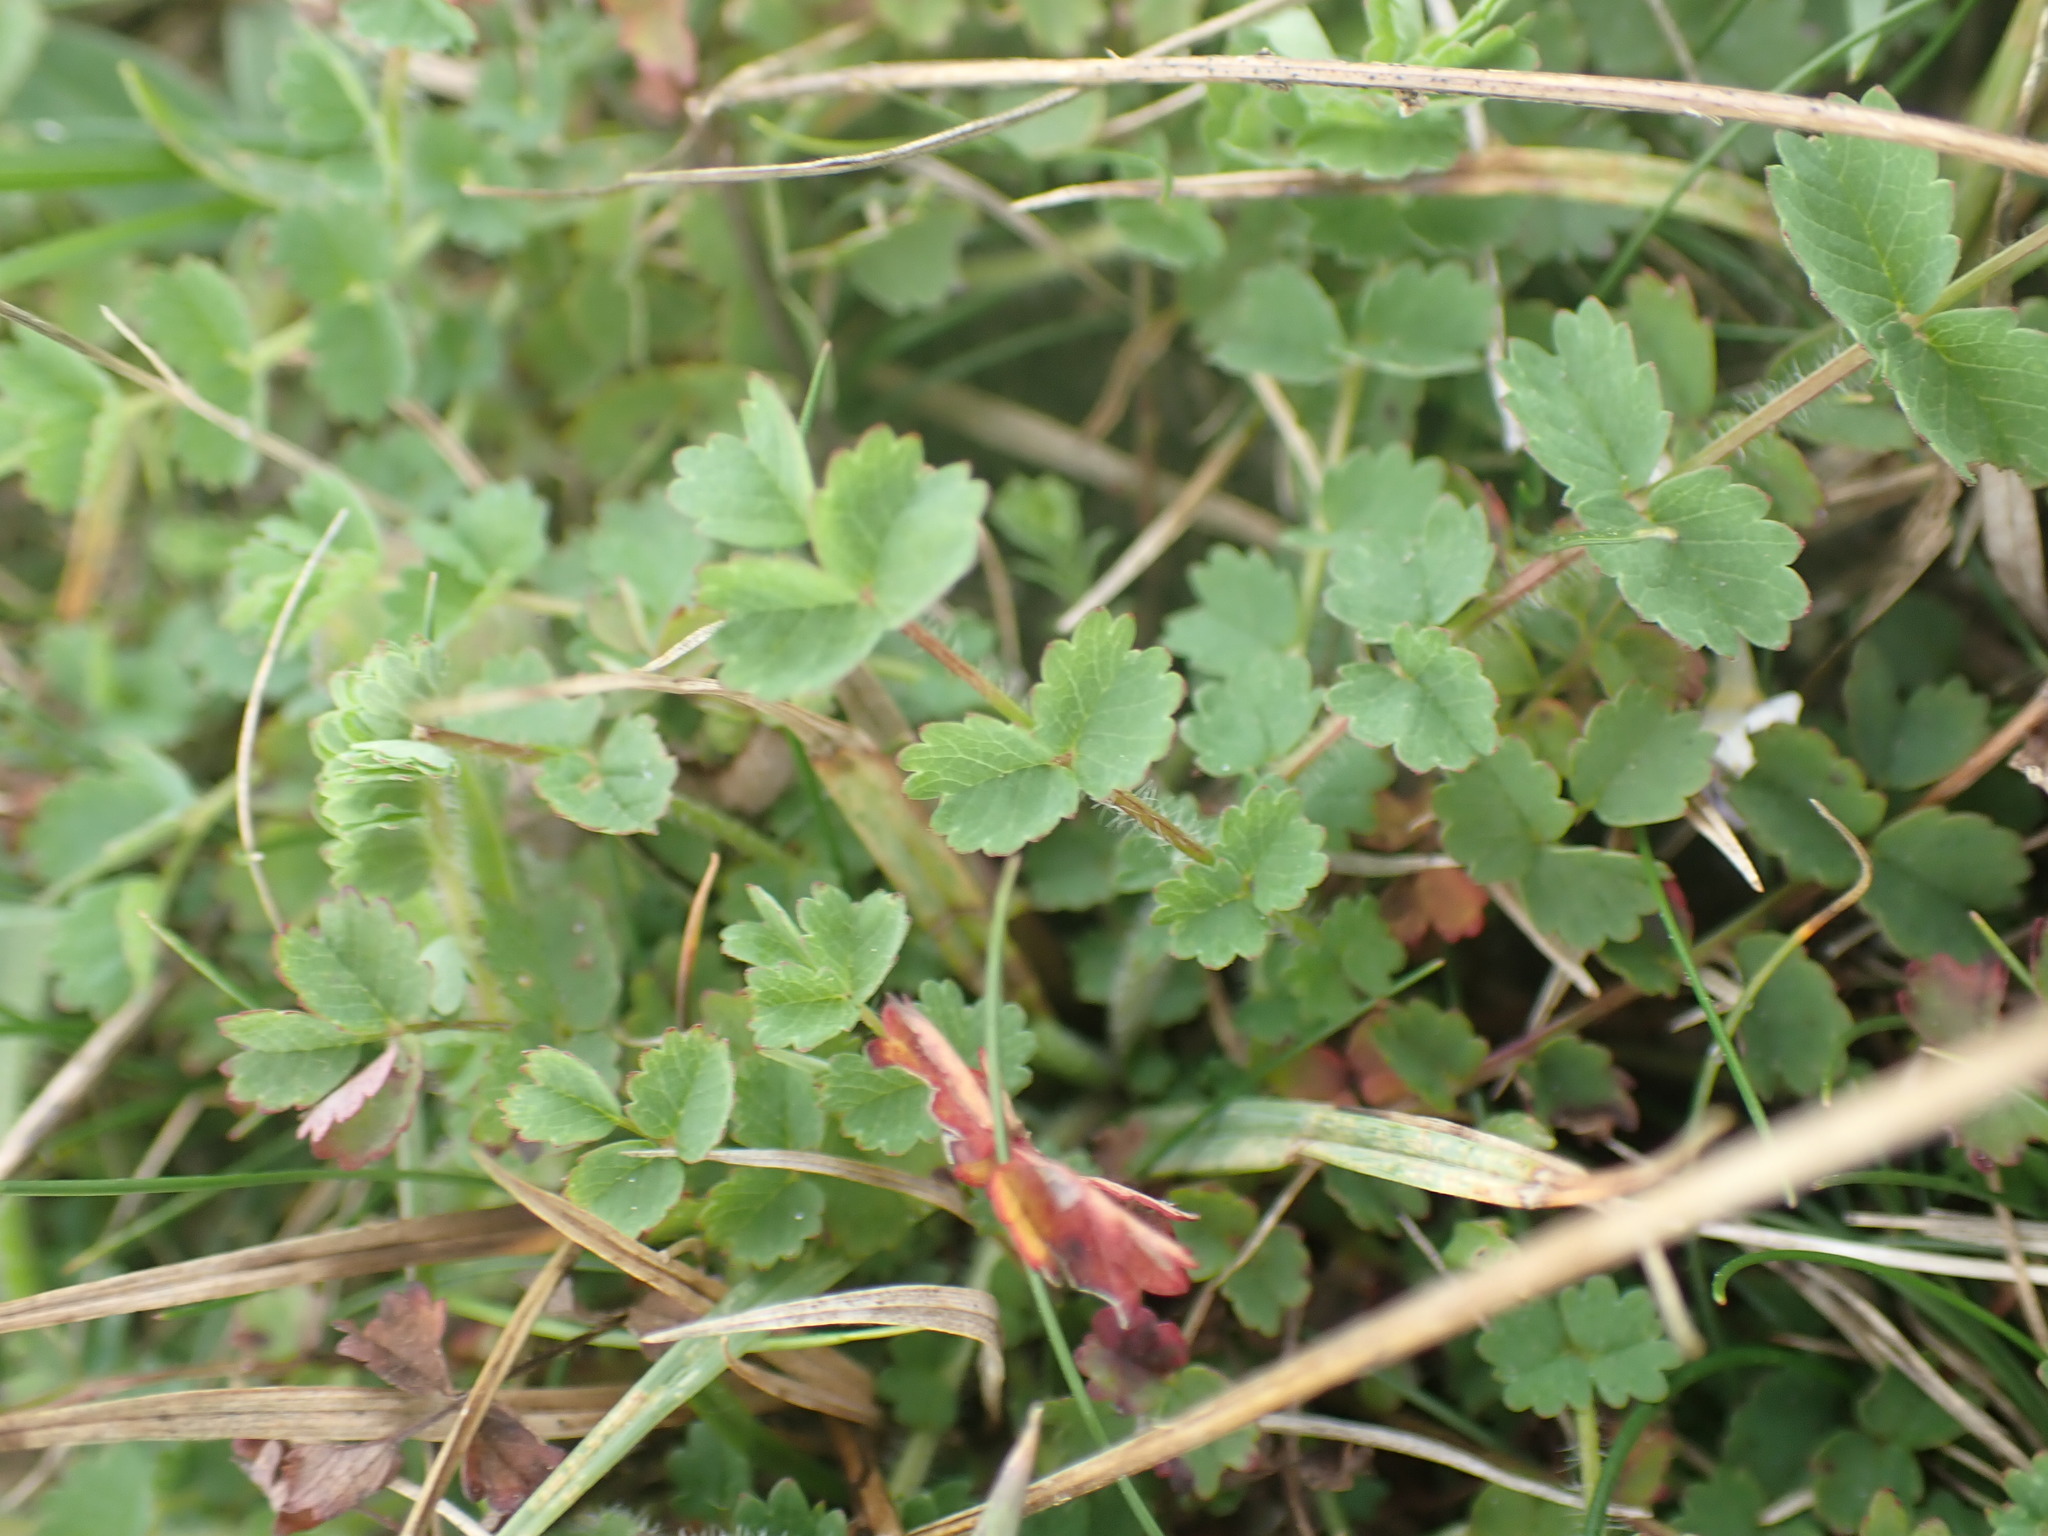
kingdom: Plantae
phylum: Tracheophyta
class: Magnoliopsida
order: Rosales
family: Rosaceae
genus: Poterium
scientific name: Poterium sanguisorba
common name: Salad burnet
